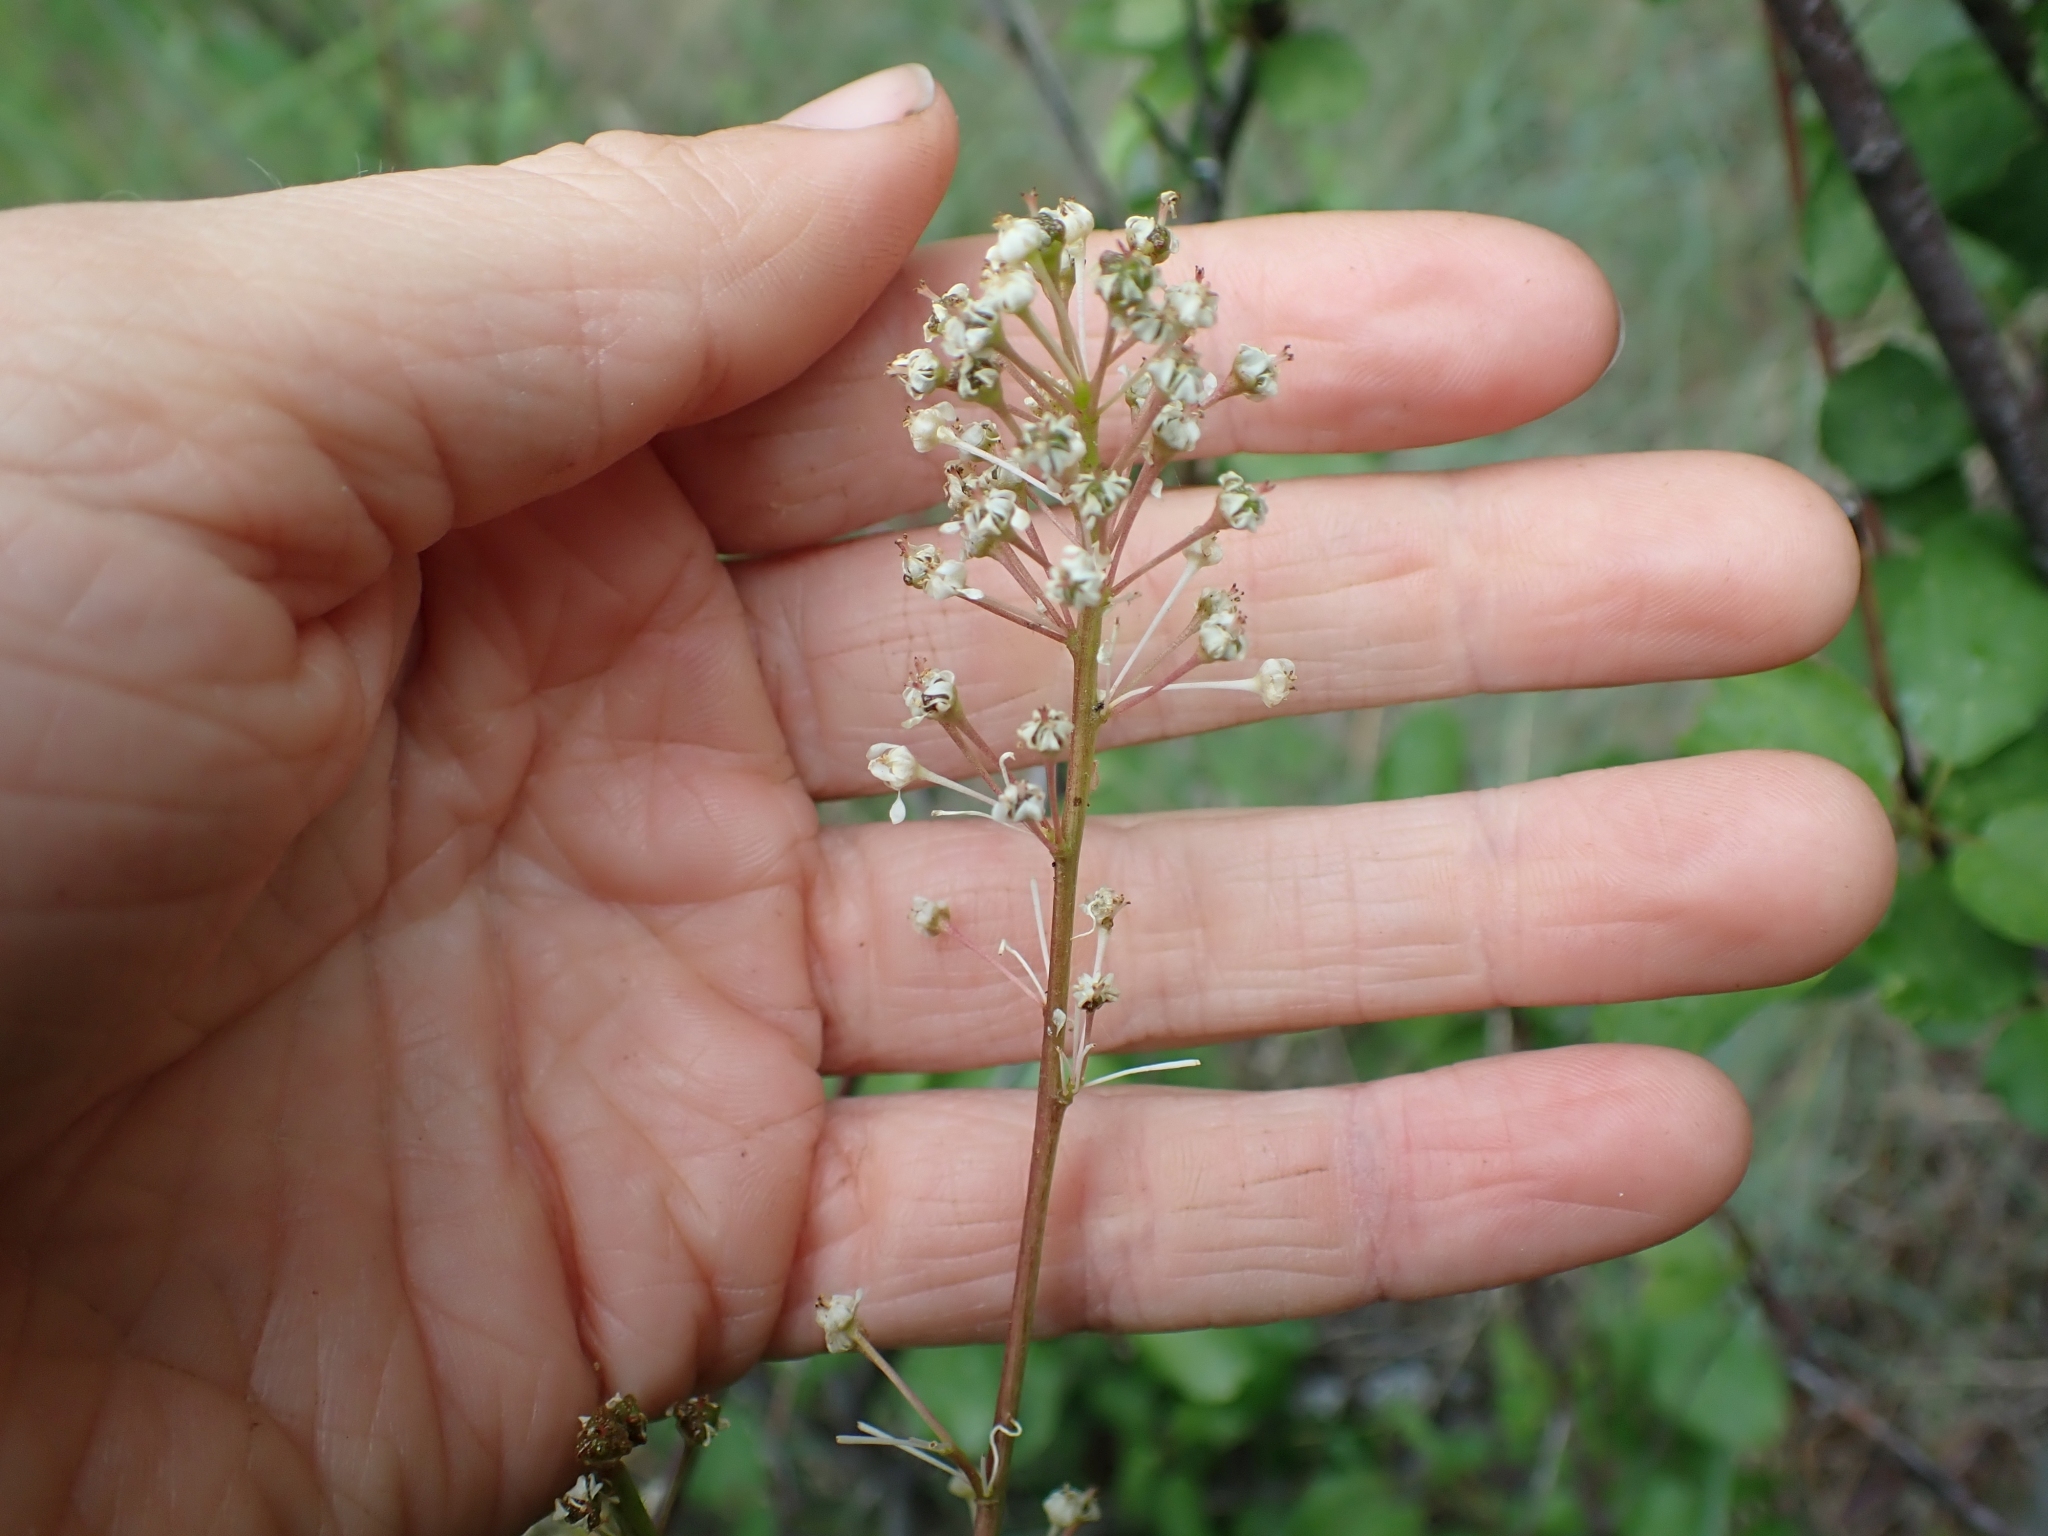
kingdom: Plantae
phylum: Tracheophyta
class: Magnoliopsida
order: Rosales
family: Rhamnaceae
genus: Ceanothus
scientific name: Ceanothus sanguineus
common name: Teatree
